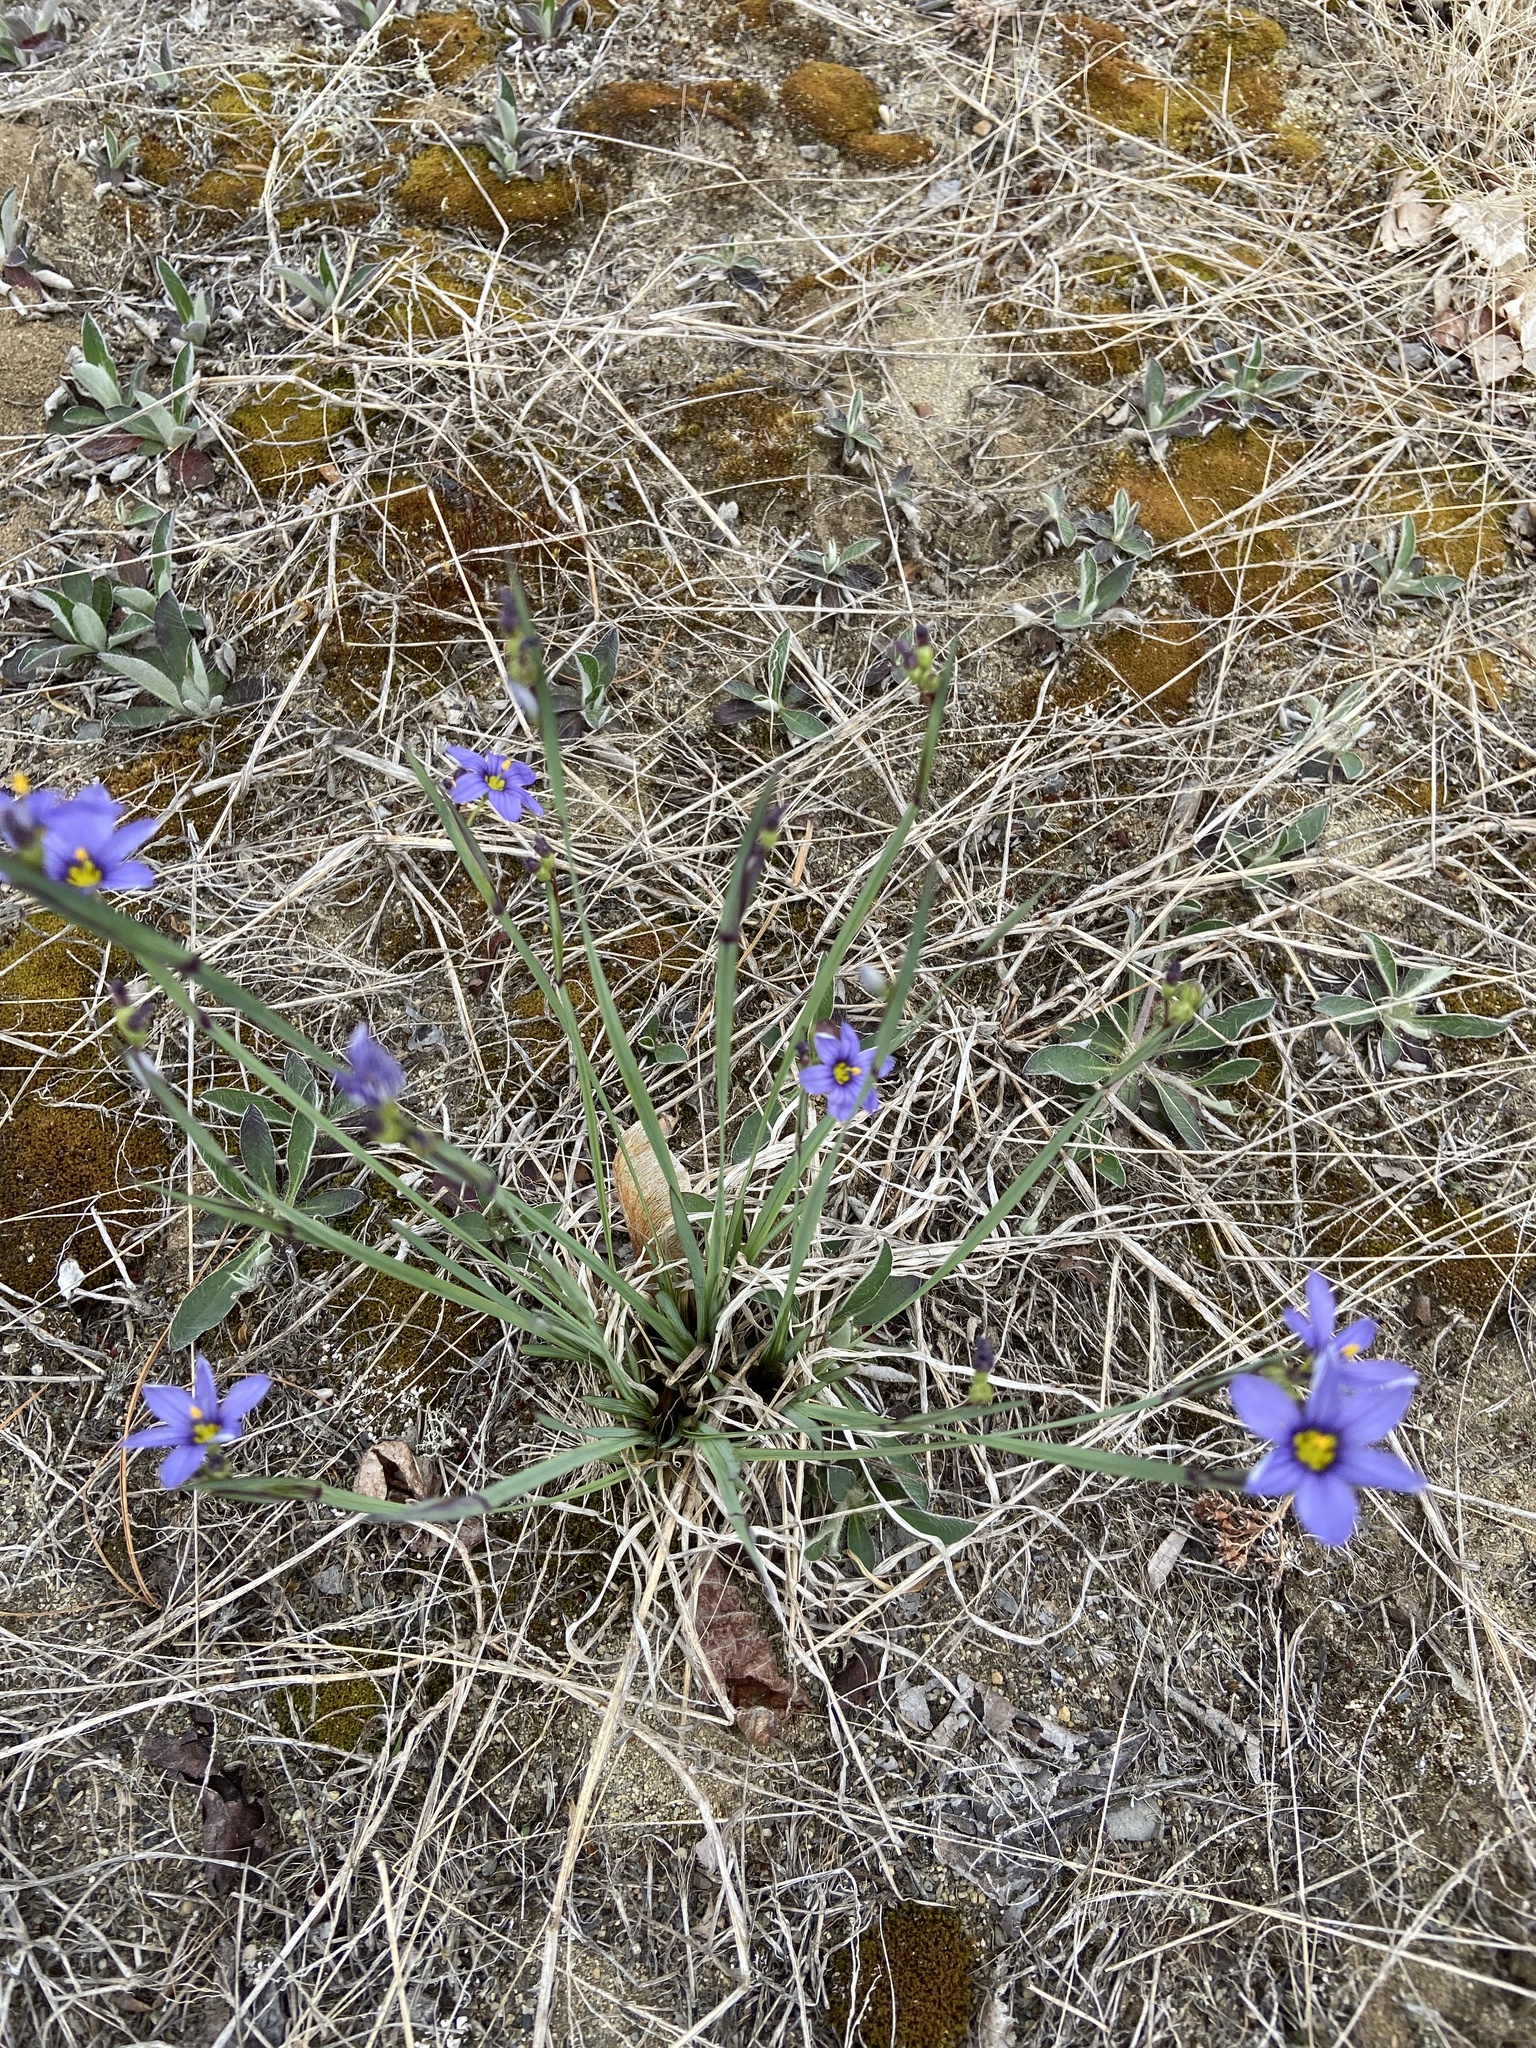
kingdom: Plantae
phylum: Tracheophyta
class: Liliopsida
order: Asparagales
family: Iridaceae
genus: Sisyrinchium
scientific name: Sisyrinchium montanum
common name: American blue-eyed-grass
